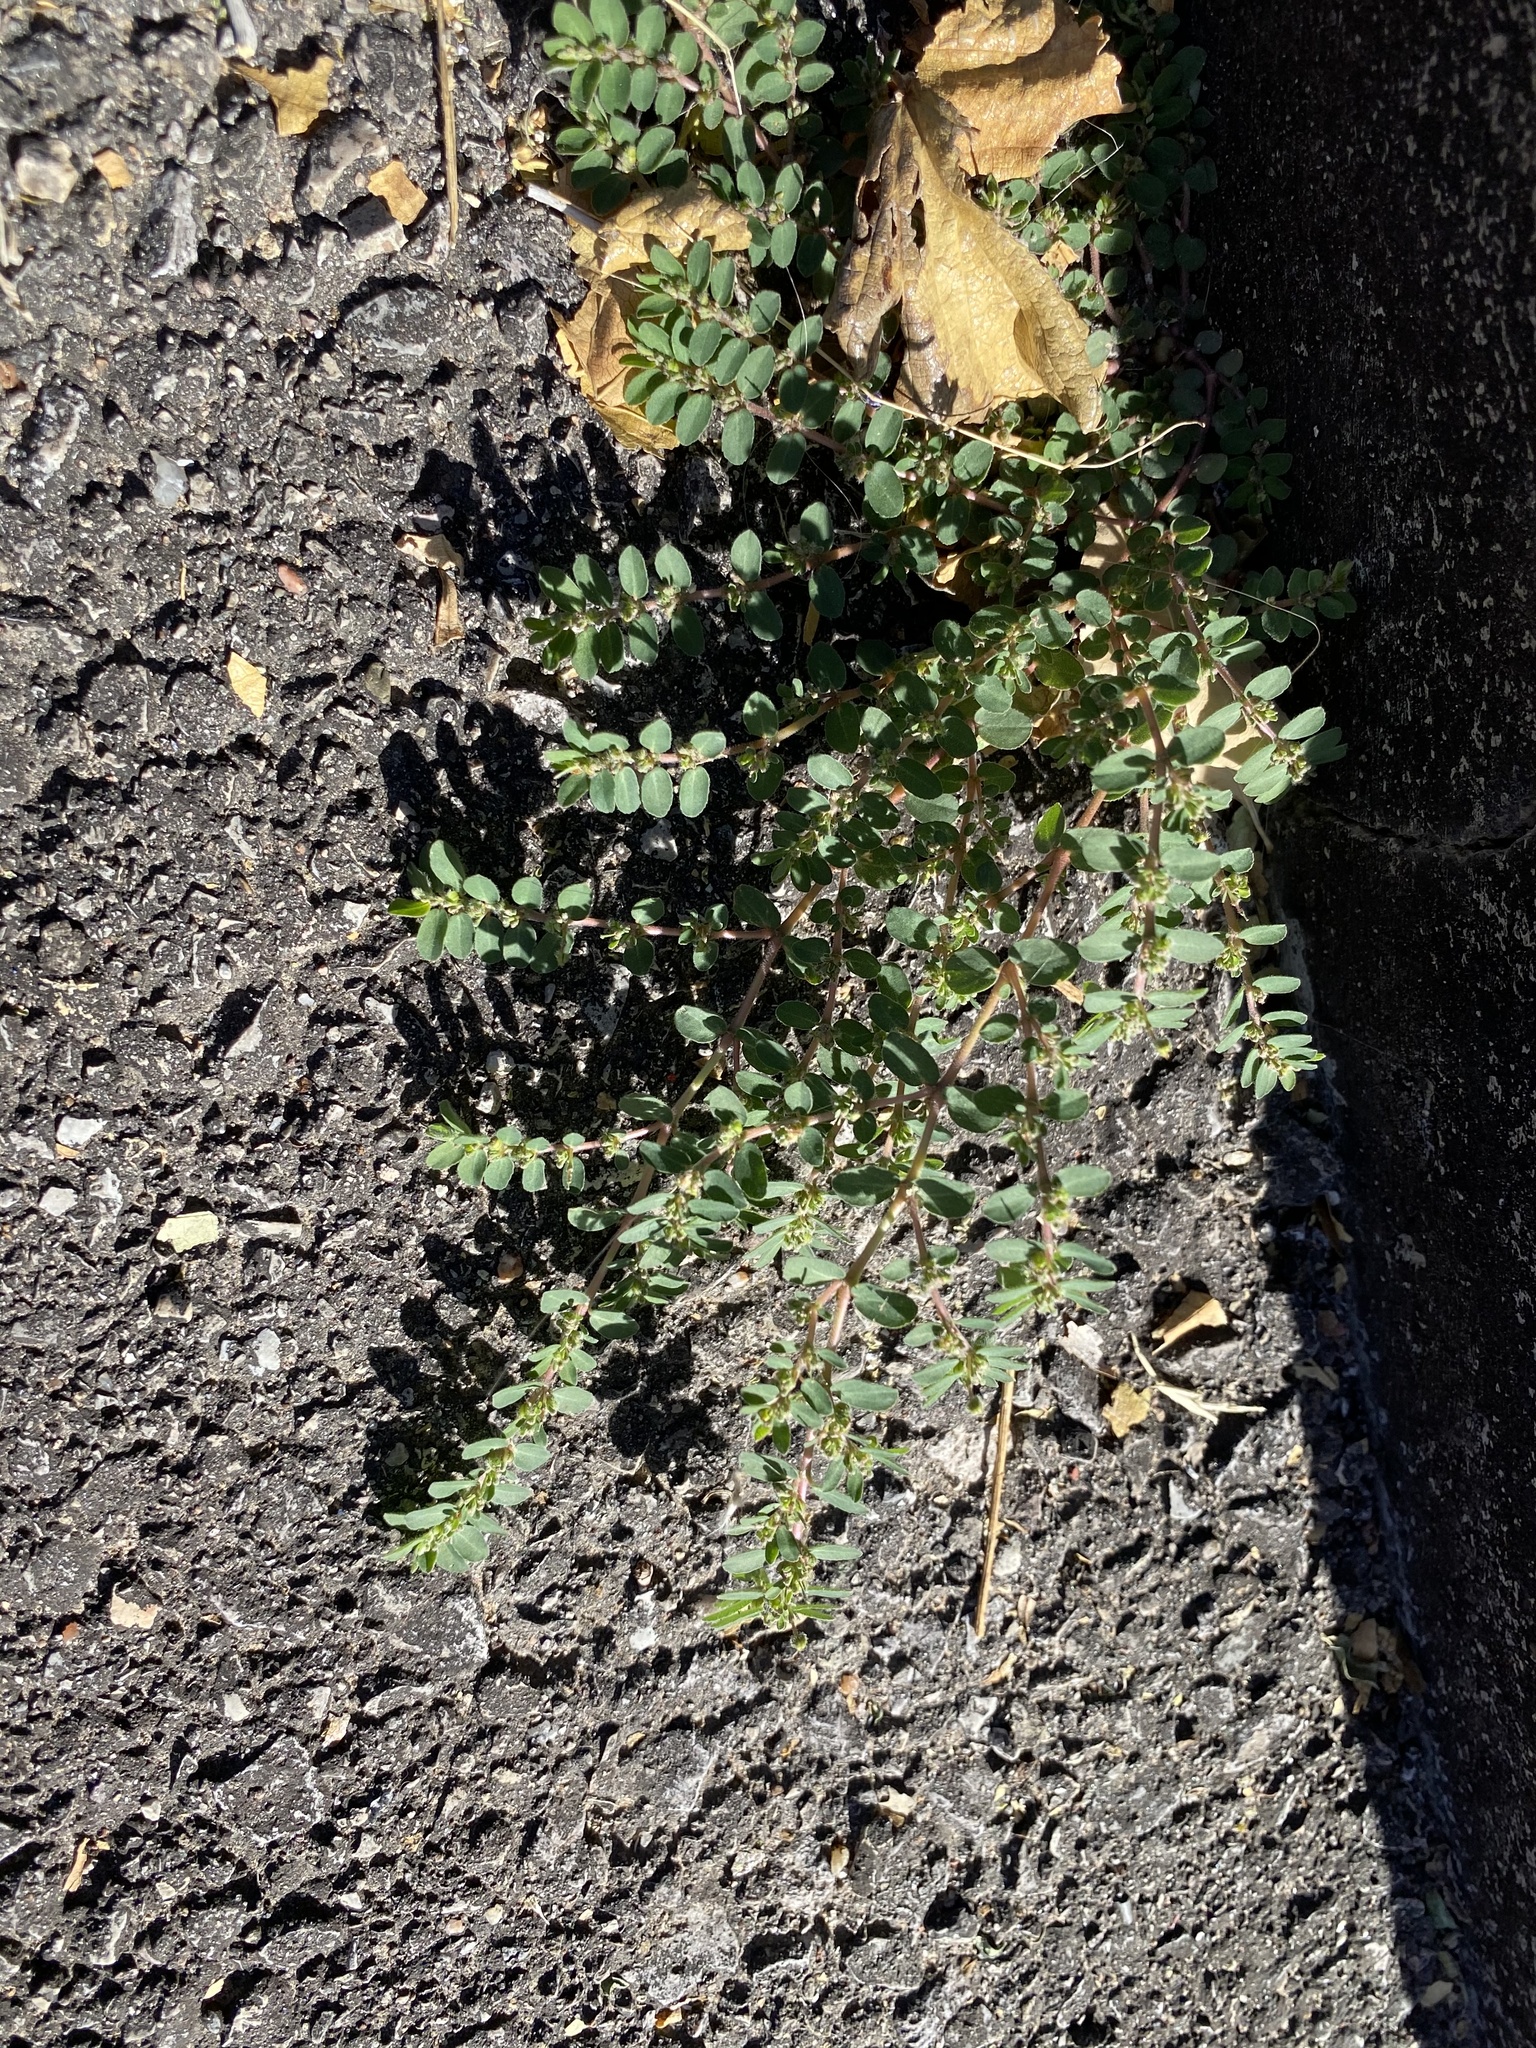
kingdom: Plantae
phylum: Tracheophyta
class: Magnoliopsida
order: Malpighiales
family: Euphorbiaceae
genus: Euphorbia
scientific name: Euphorbia prostrata
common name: Prostrate sandmat
